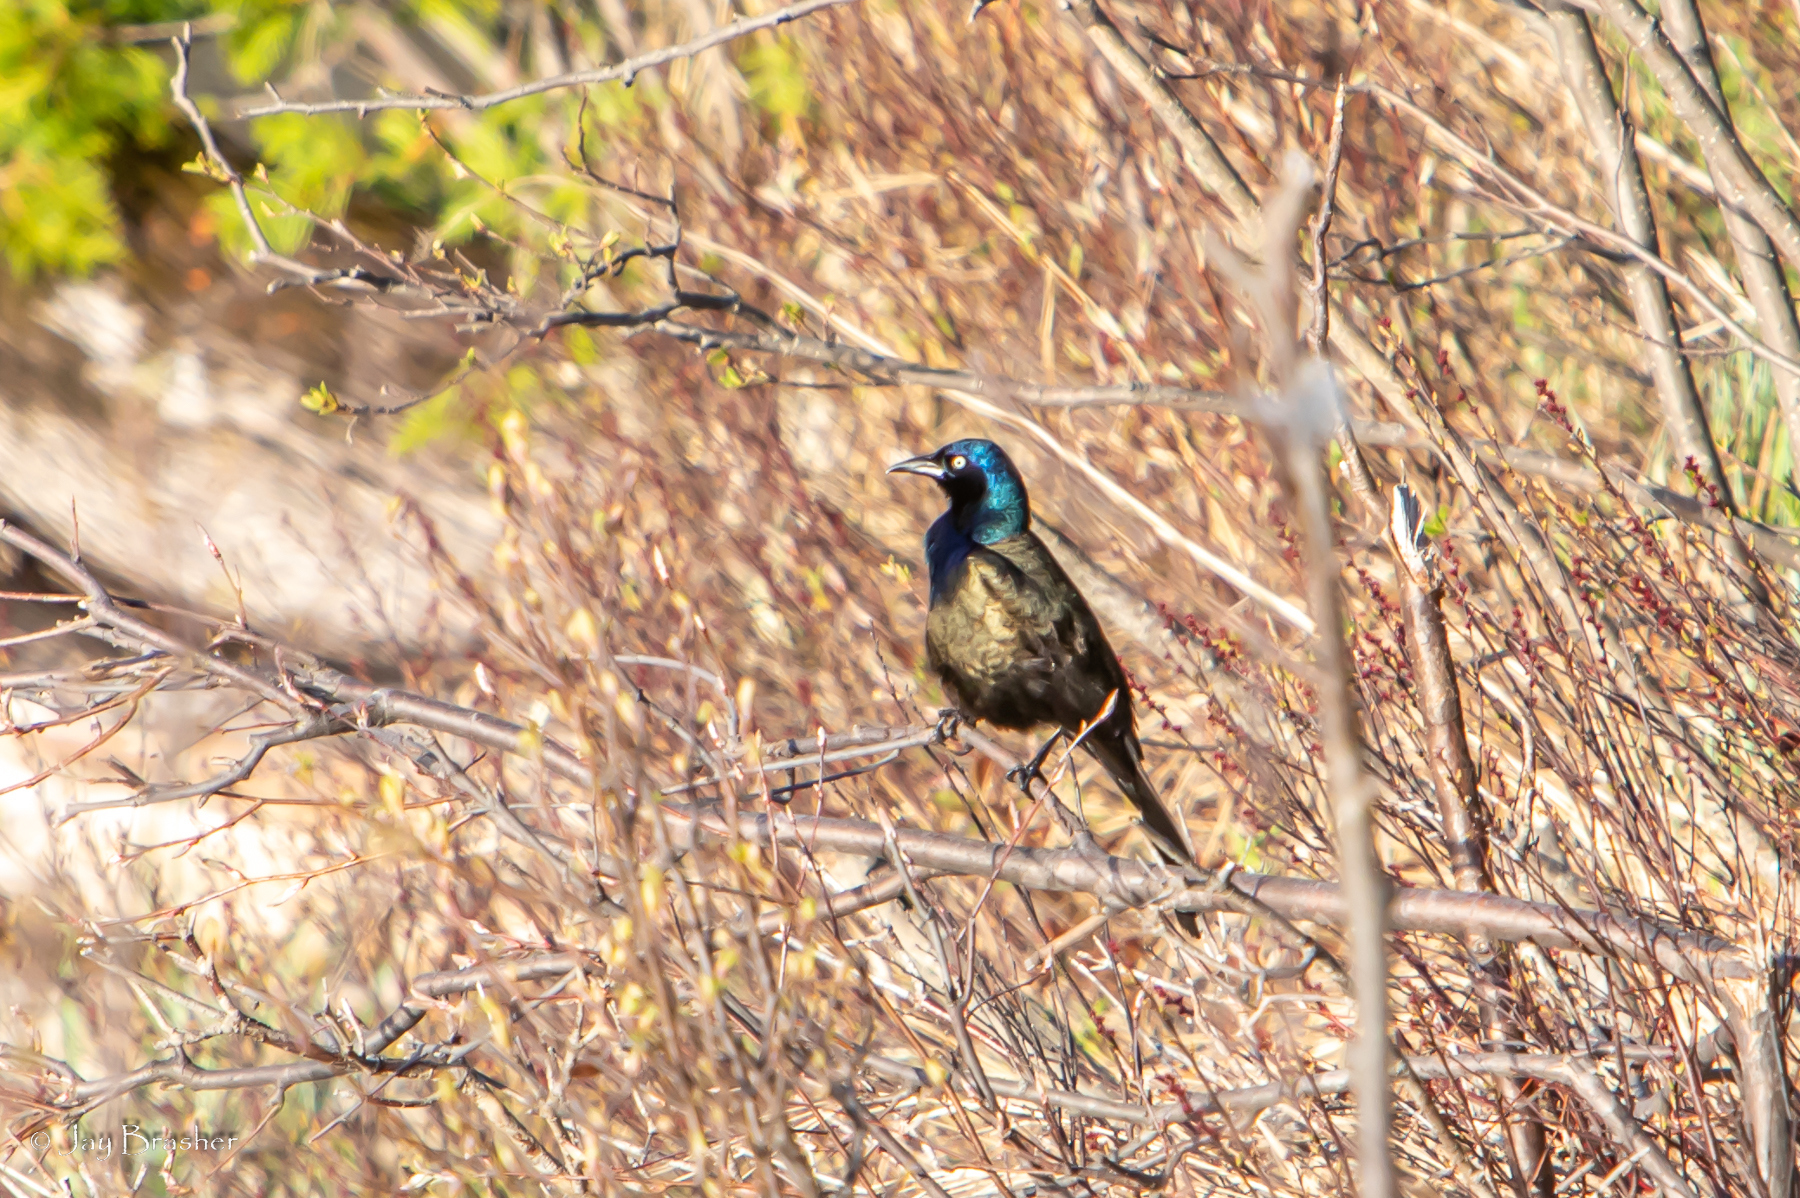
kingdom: Animalia
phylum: Chordata
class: Aves
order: Passeriformes
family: Icteridae
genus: Quiscalus
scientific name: Quiscalus quiscula
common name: Common grackle
